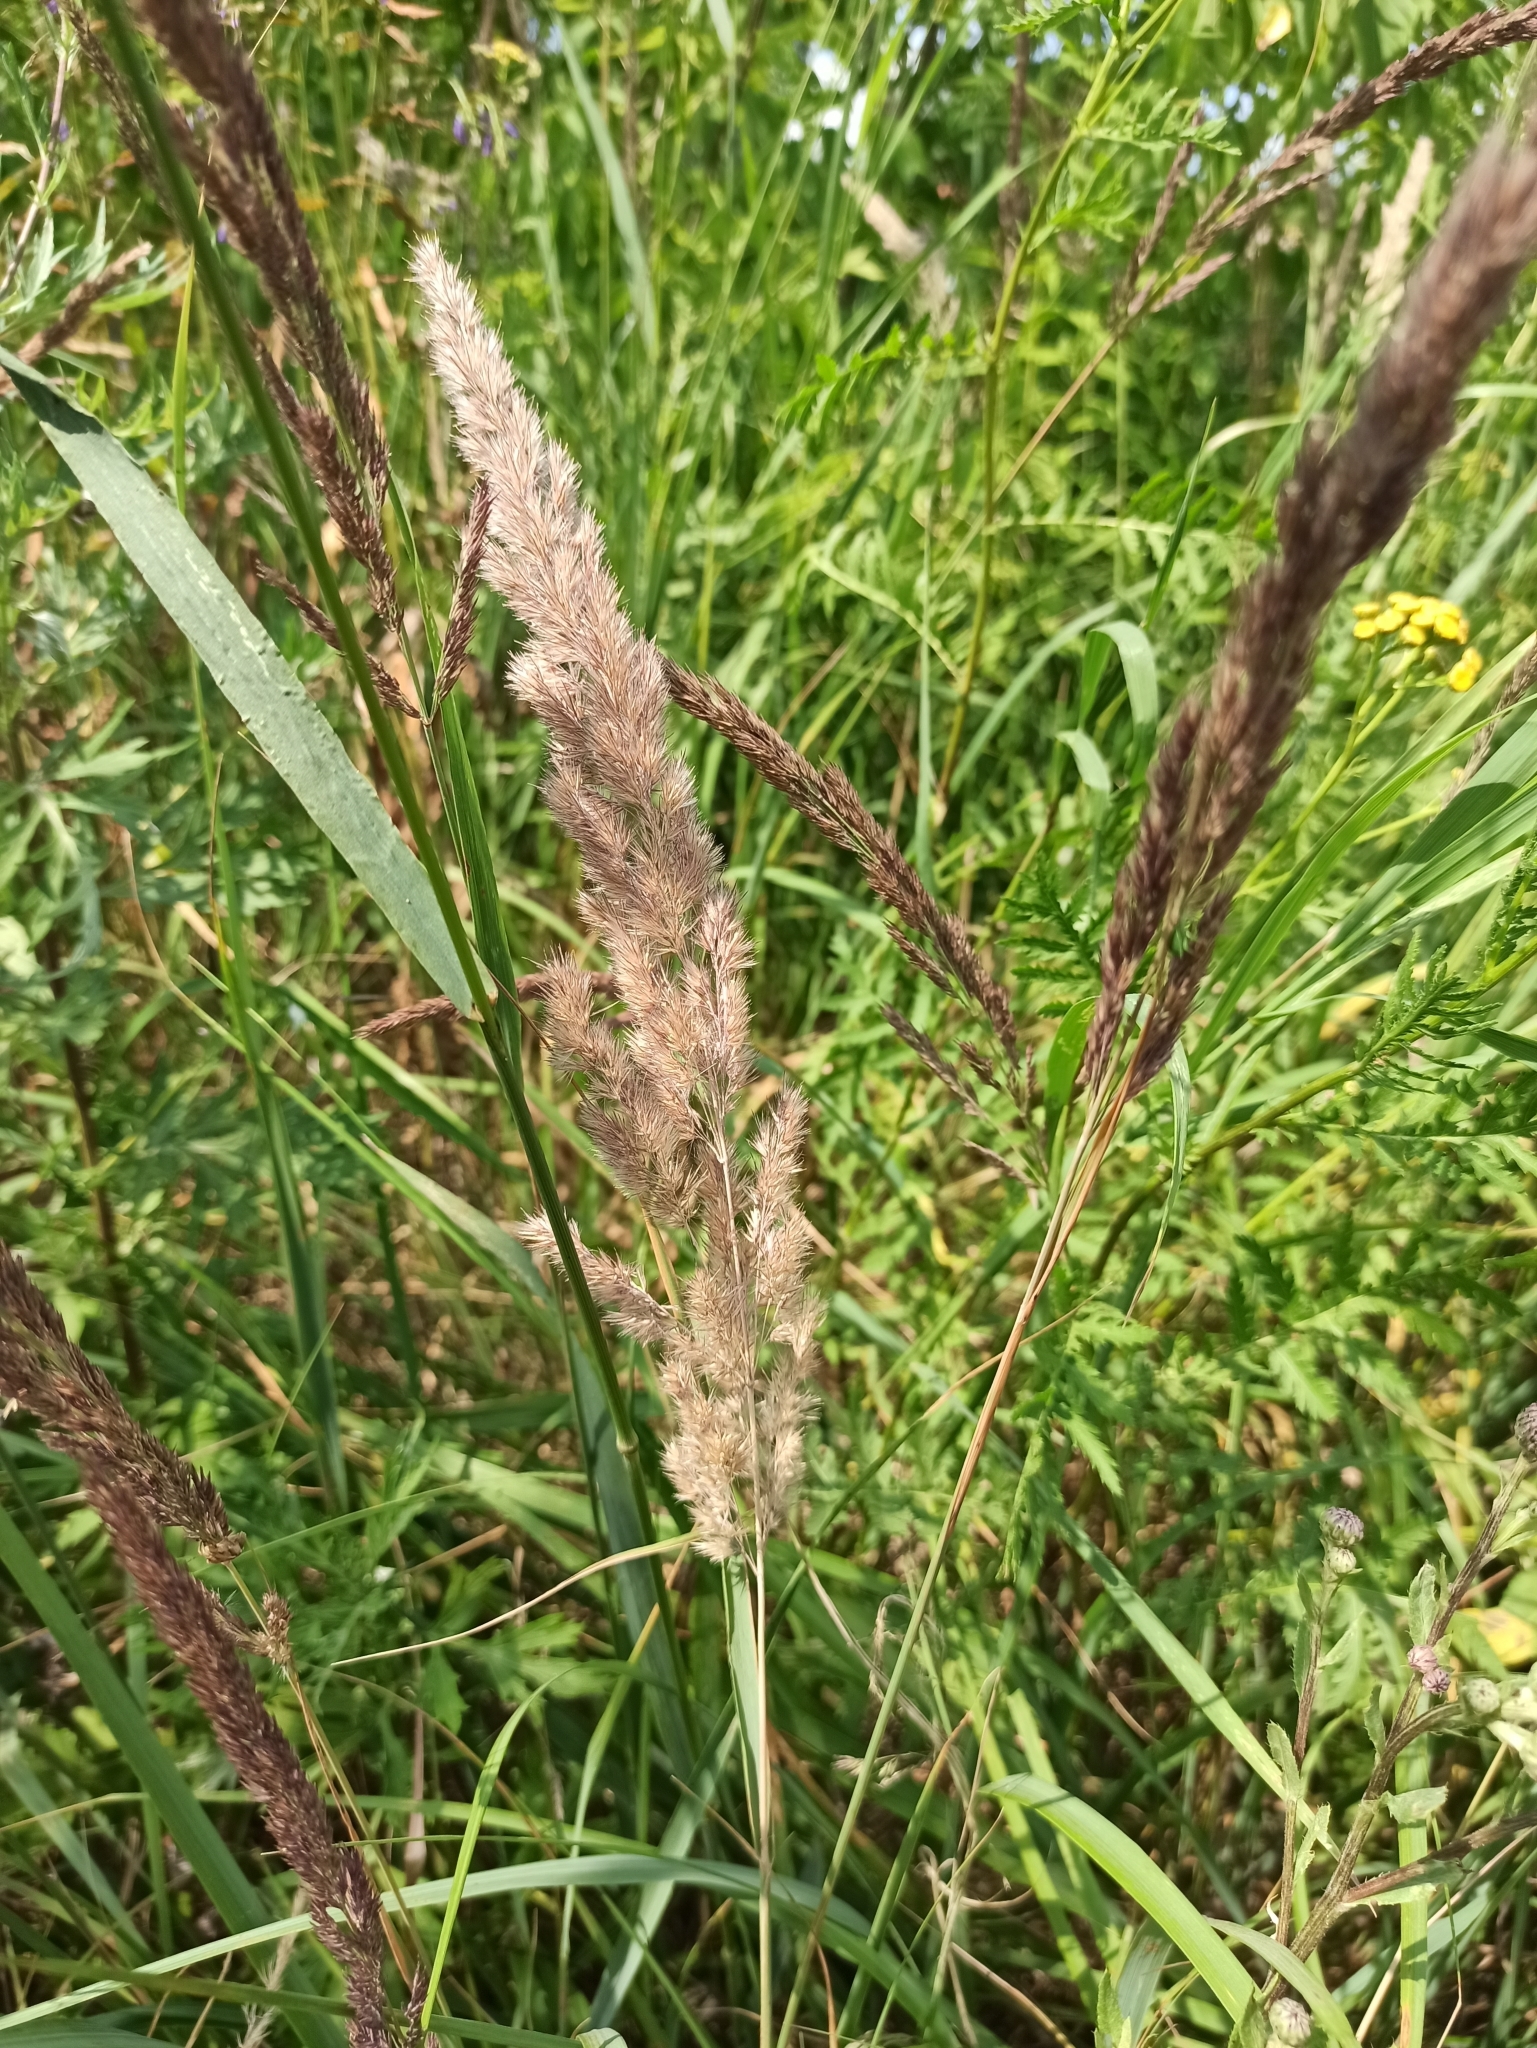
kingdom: Plantae
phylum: Tracheophyta
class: Liliopsida
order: Poales
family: Poaceae
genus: Calamagrostis
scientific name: Calamagrostis epigejos
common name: Wood small-reed
